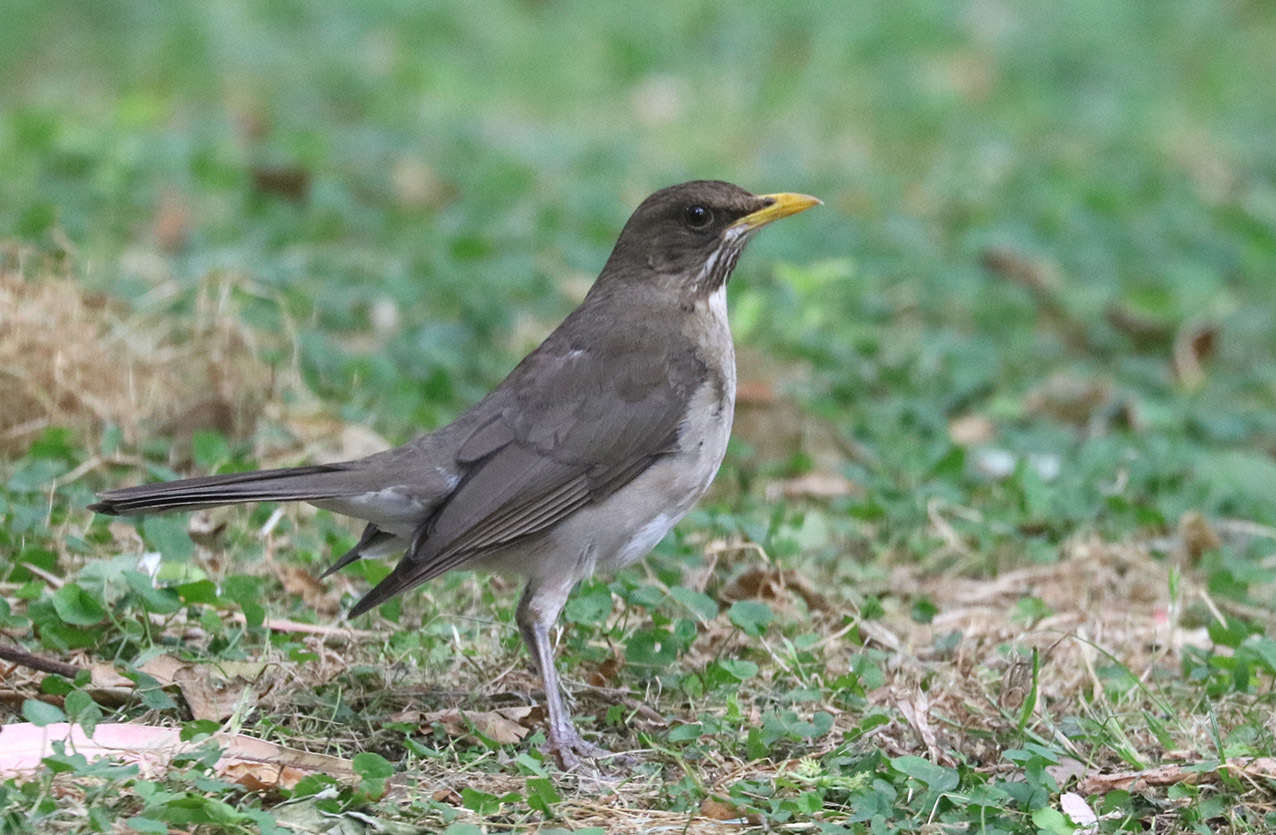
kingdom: Animalia
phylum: Chordata
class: Aves
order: Passeriformes
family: Turdidae
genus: Turdus
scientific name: Turdus amaurochalinus
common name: Creamy-bellied thrush
